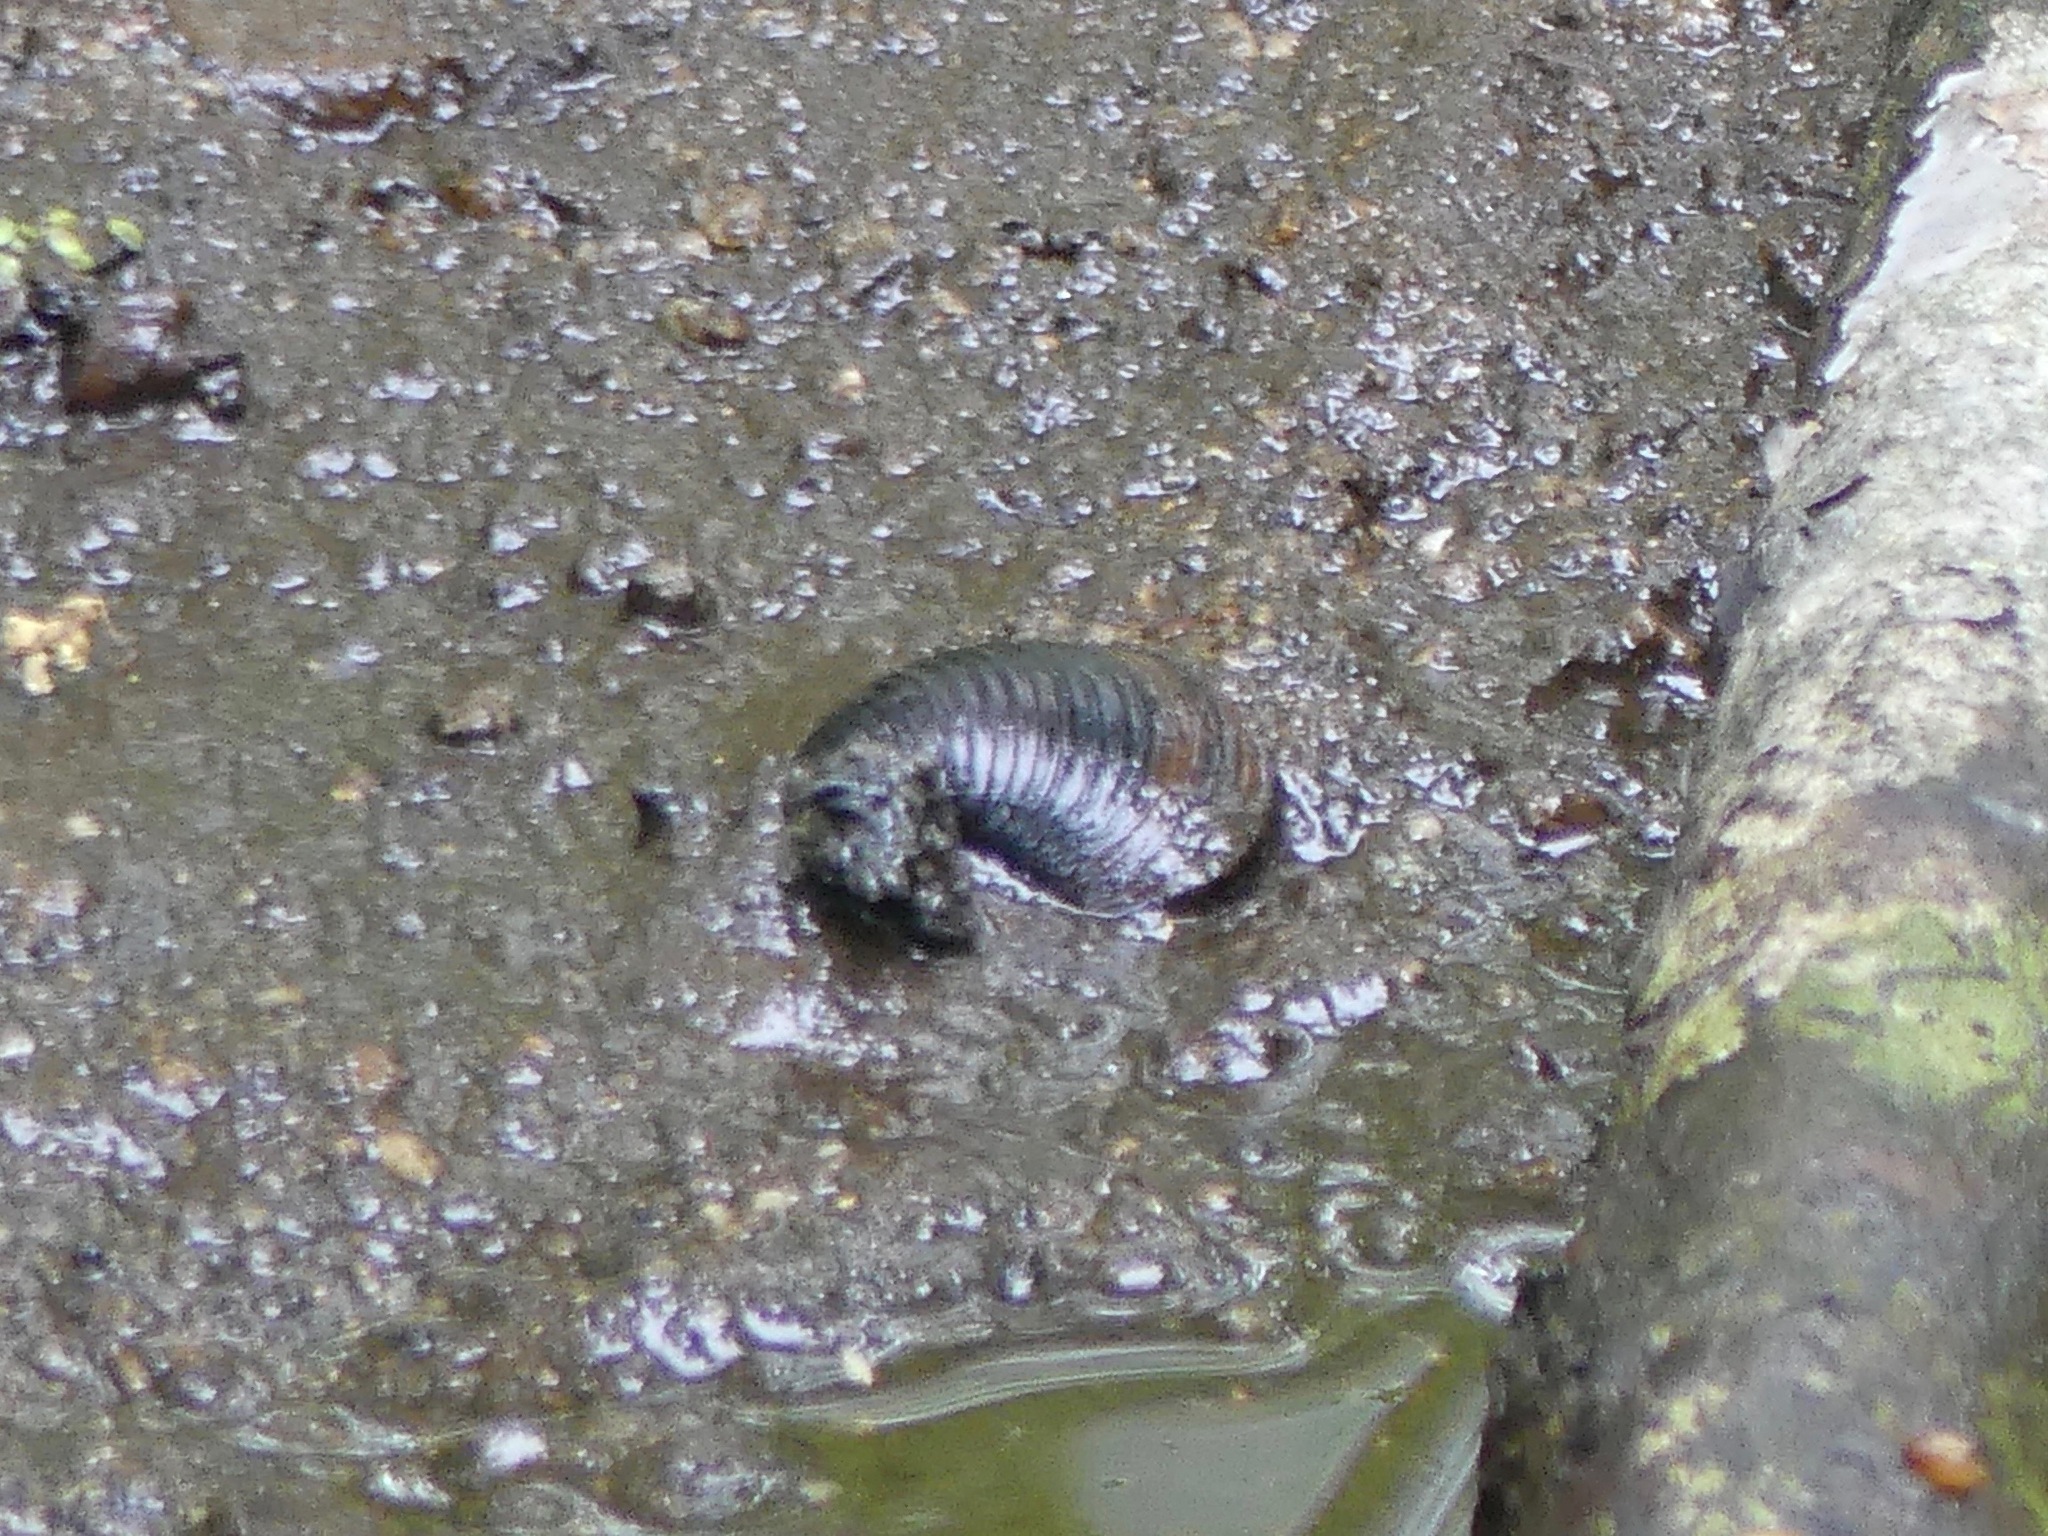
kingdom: Animalia
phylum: Mollusca
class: Bivalvia
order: Venerida
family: Cyrenidae
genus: Corbicula
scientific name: Corbicula fluminea
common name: Asian clam
